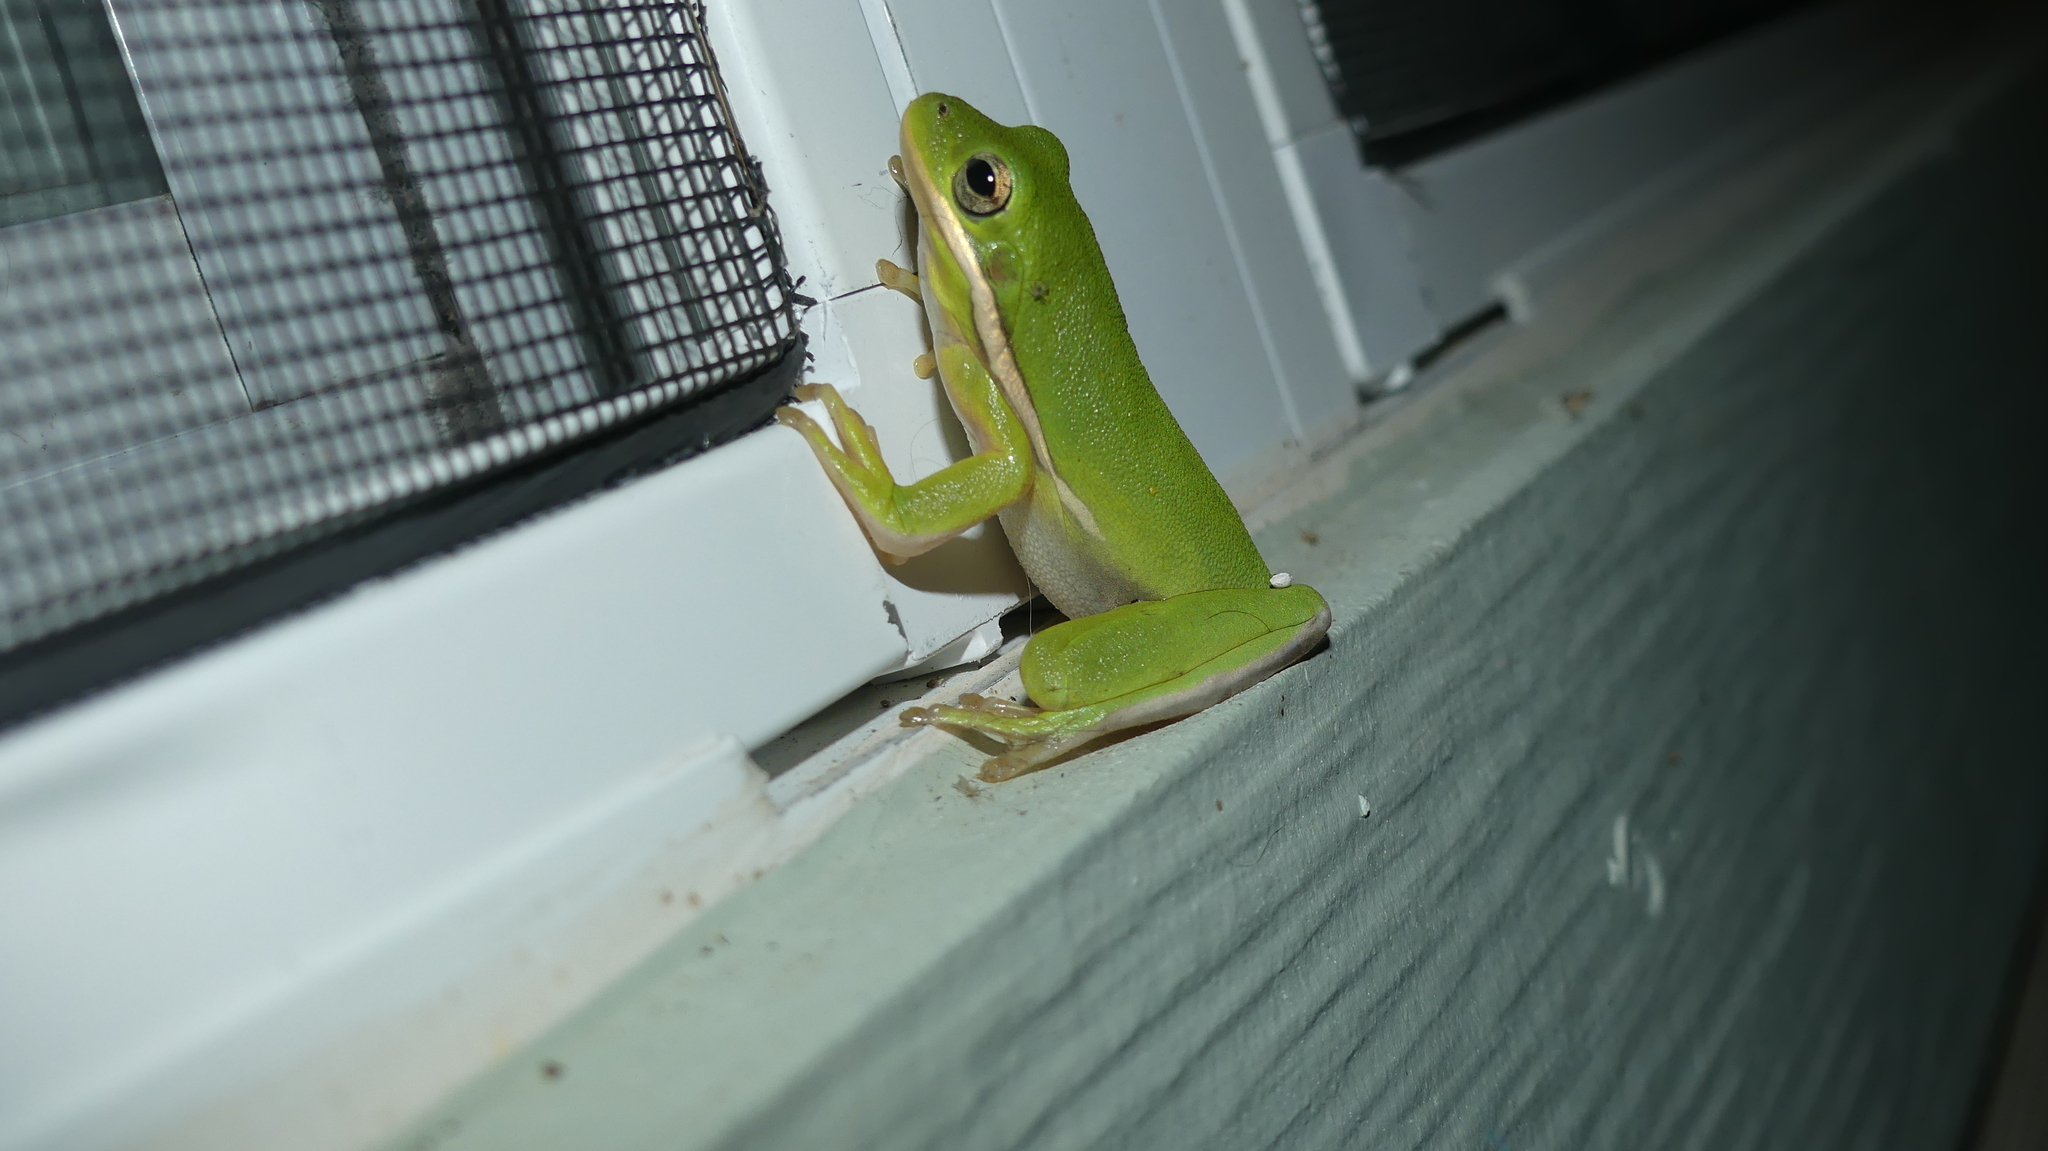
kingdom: Animalia
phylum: Chordata
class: Amphibia
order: Anura
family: Hylidae
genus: Dryophytes
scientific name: Dryophytes cinereus
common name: Green treefrog
